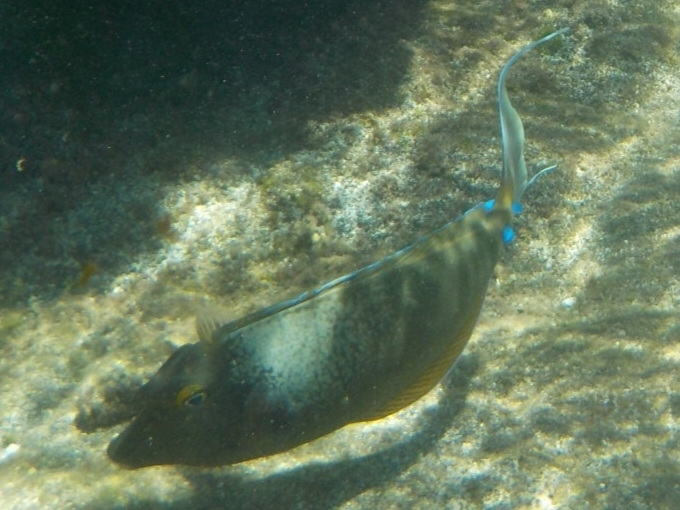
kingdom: Animalia
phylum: Chordata
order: Perciformes
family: Acanthuridae
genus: Naso
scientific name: Naso unicornis
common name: Bluespine unicornfish
